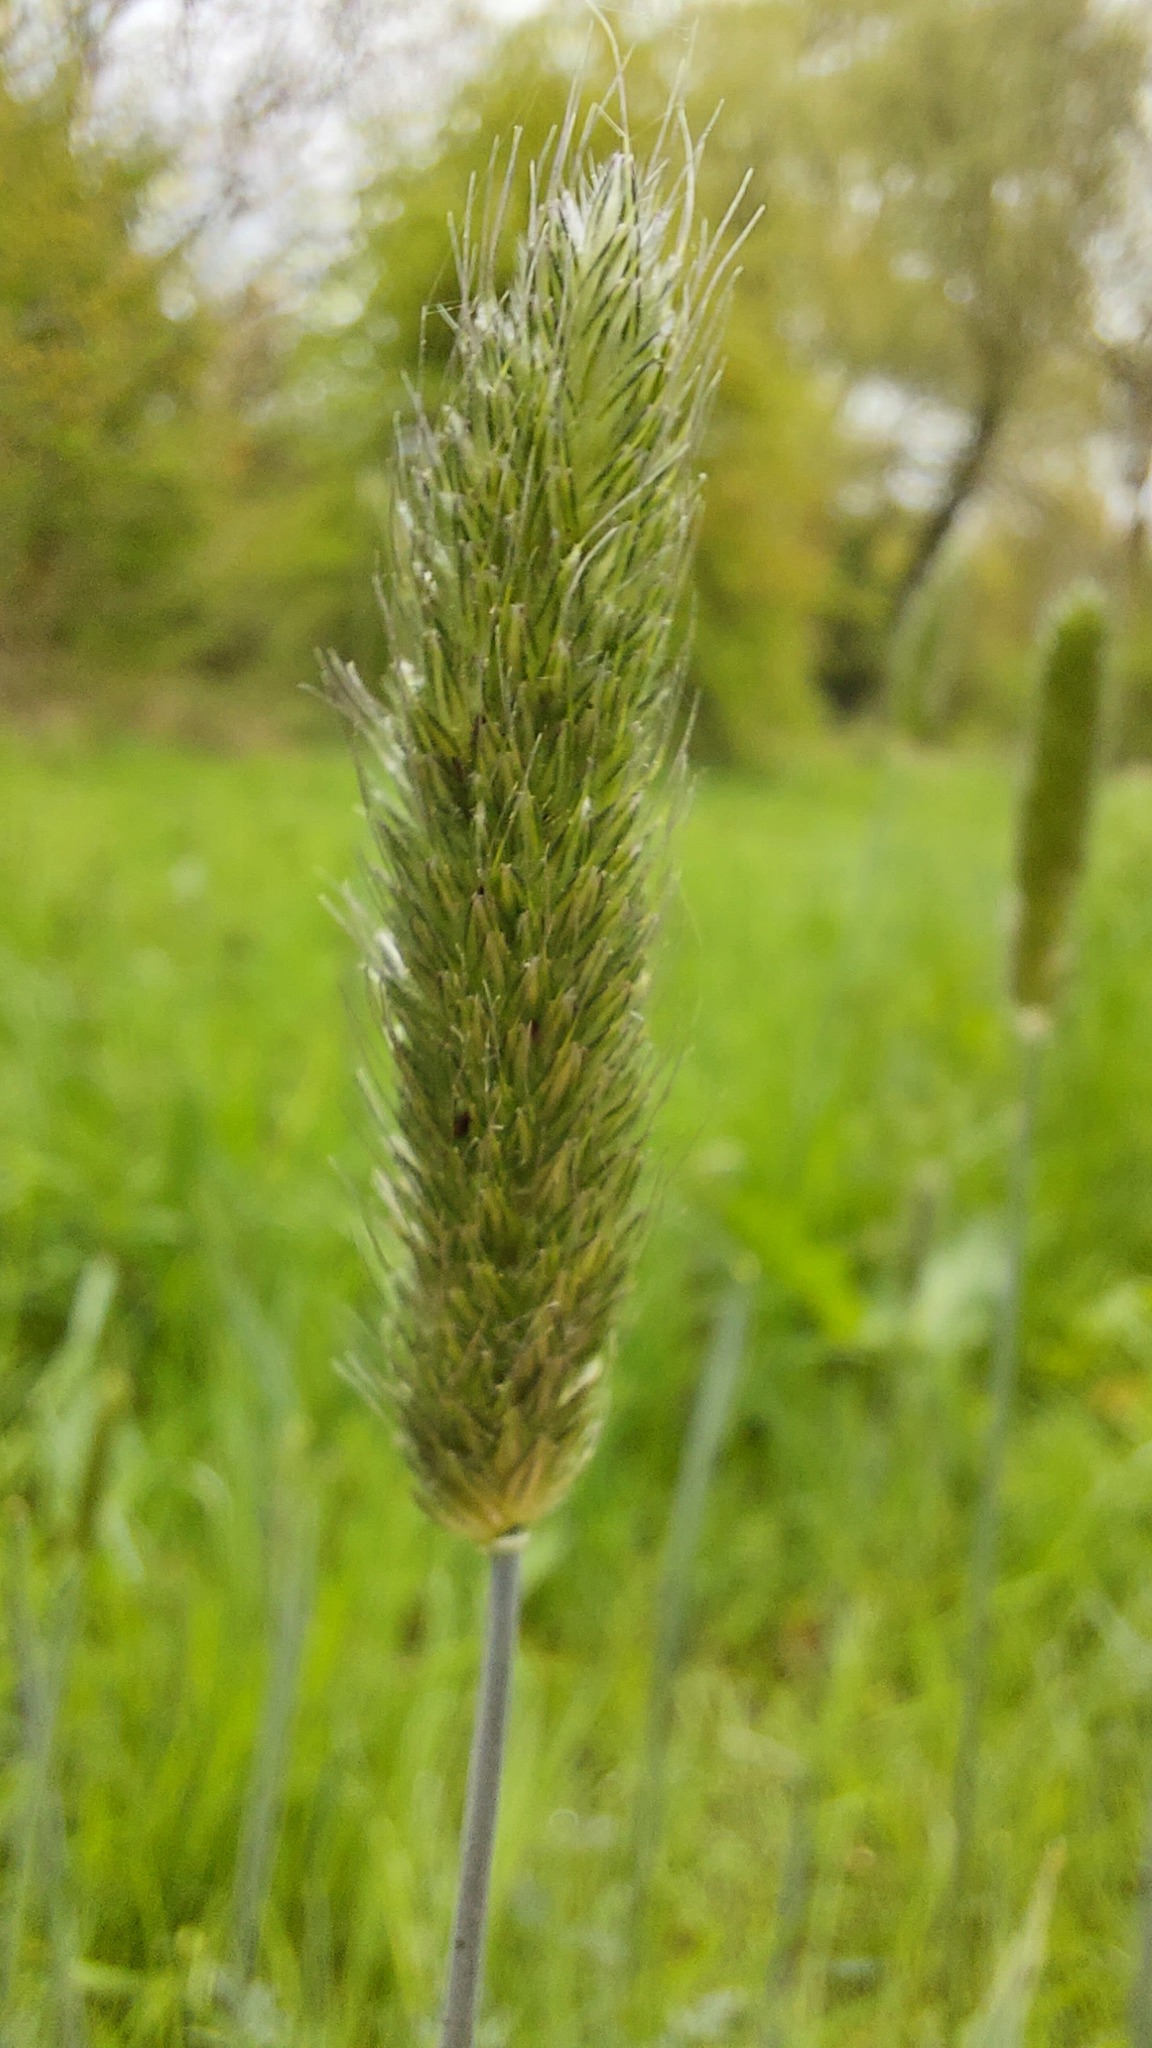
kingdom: Plantae
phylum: Tracheophyta
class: Liliopsida
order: Poales
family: Poaceae
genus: Alopecurus
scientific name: Alopecurus pratensis
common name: Meadow foxtail
